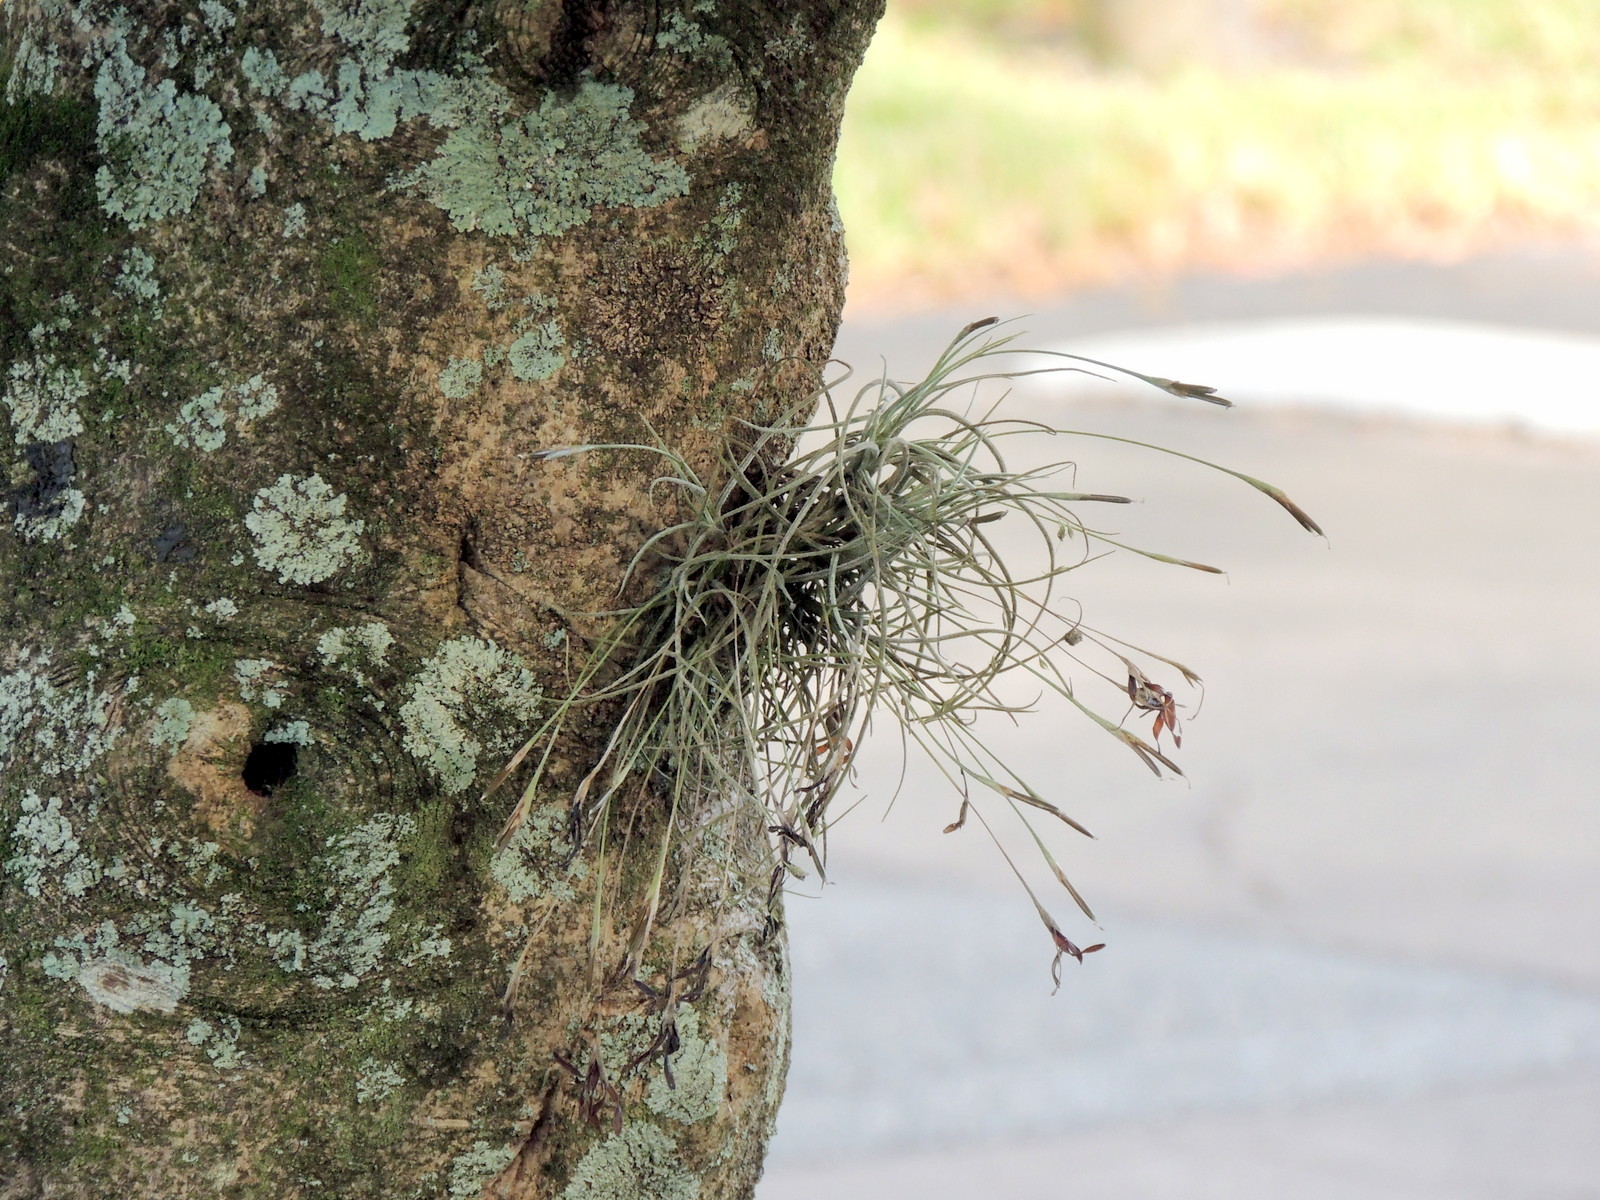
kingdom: Plantae
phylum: Tracheophyta
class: Liliopsida
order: Poales
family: Bromeliaceae
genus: Tillandsia
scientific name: Tillandsia recurvata
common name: Small ballmoss
